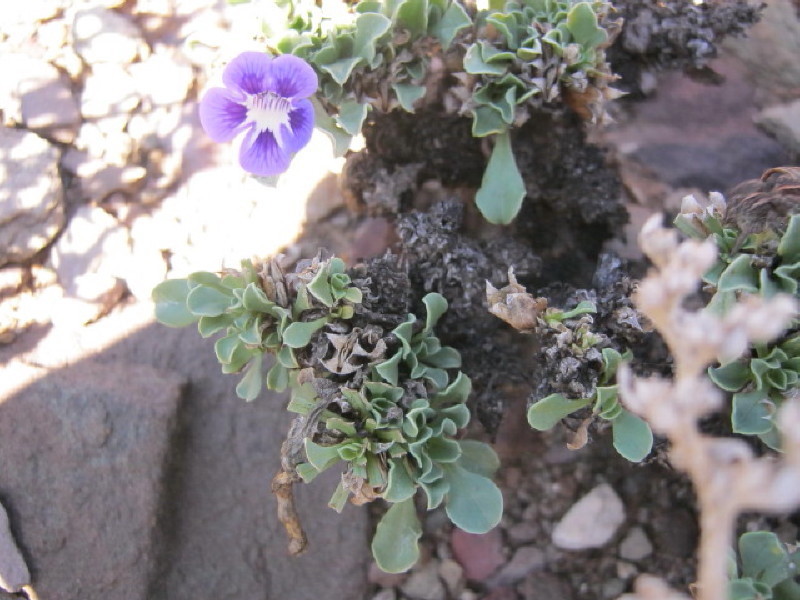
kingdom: Plantae
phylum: Tracheophyta
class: Magnoliopsida
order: Lamiales
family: Scrophulariaceae
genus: Aptosimum
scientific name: Aptosimum procumbens
